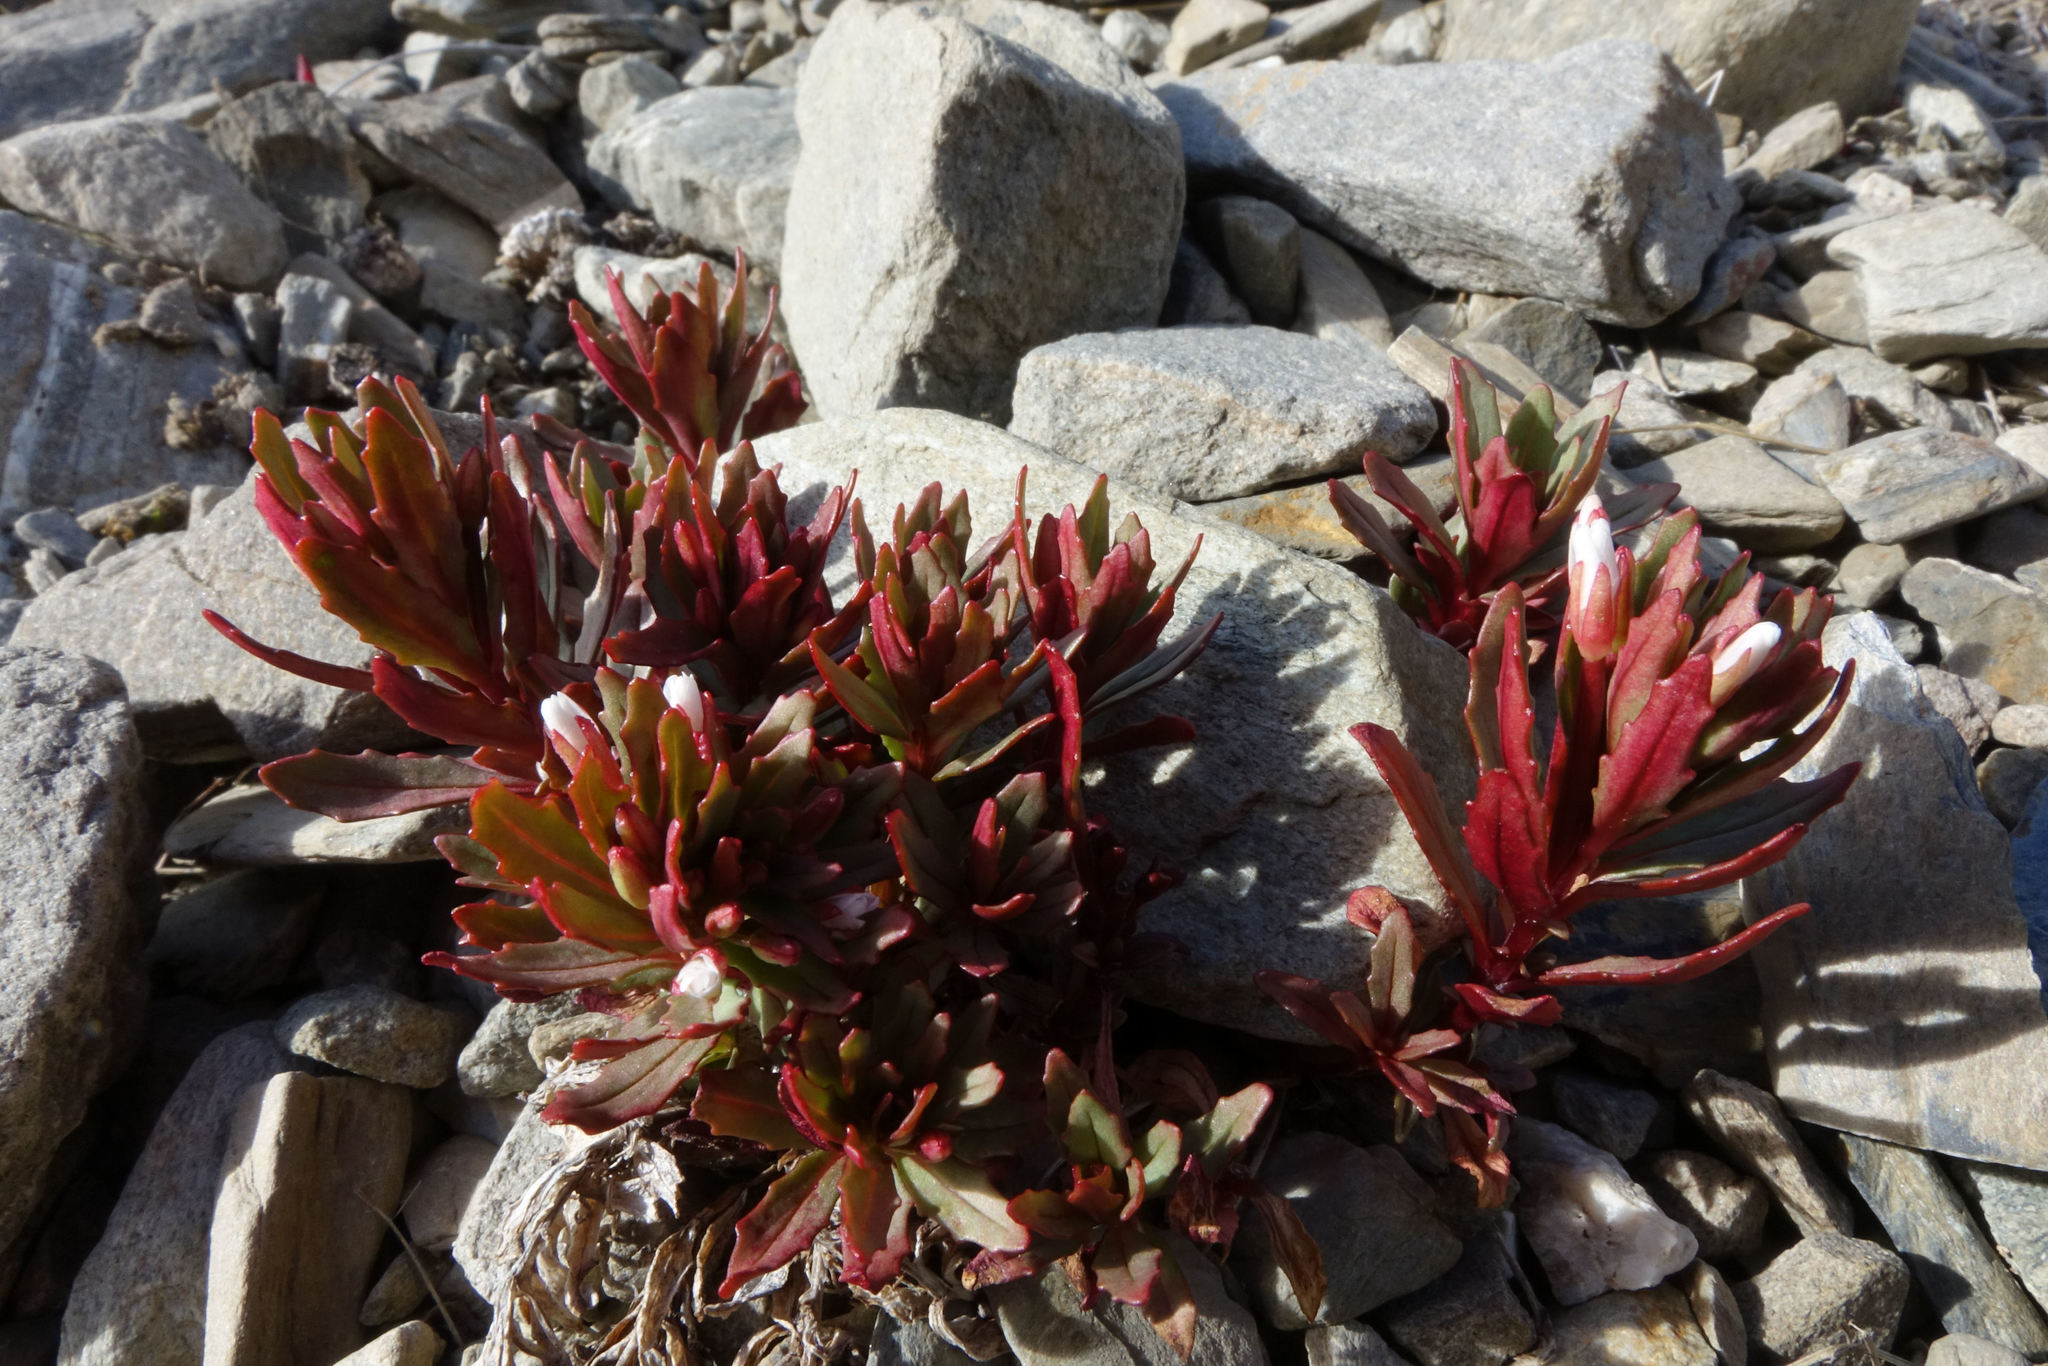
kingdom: Plantae
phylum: Tracheophyta
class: Magnoliopsida
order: Myrtales
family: Onagraceae
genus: Epilobium
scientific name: Epilobium pycnostachyum
